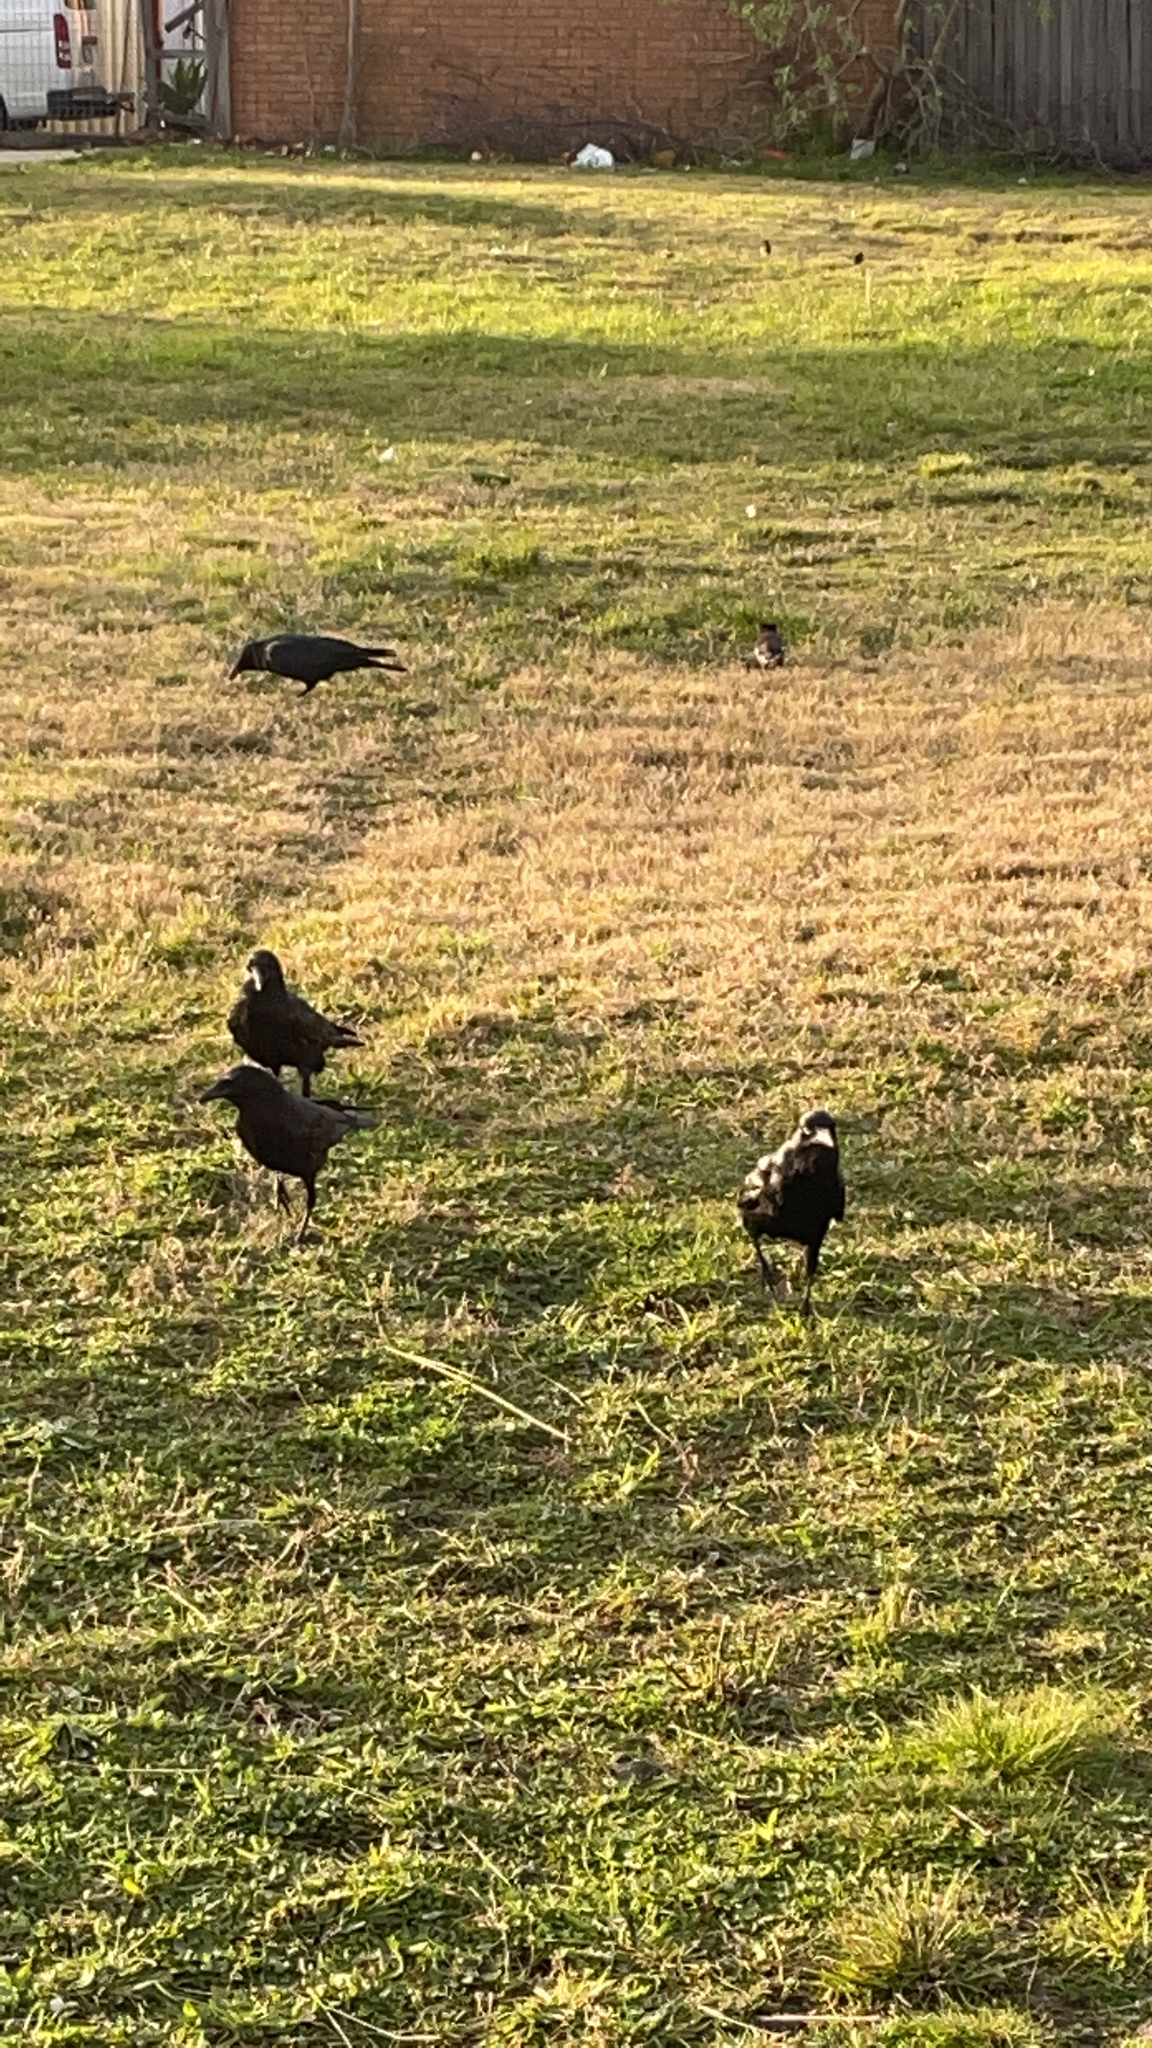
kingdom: Animalia
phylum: Chordata
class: Aves
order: Passeriformes
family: Corvidae
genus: Corvus
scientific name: Corvus mellori
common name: Little raven
